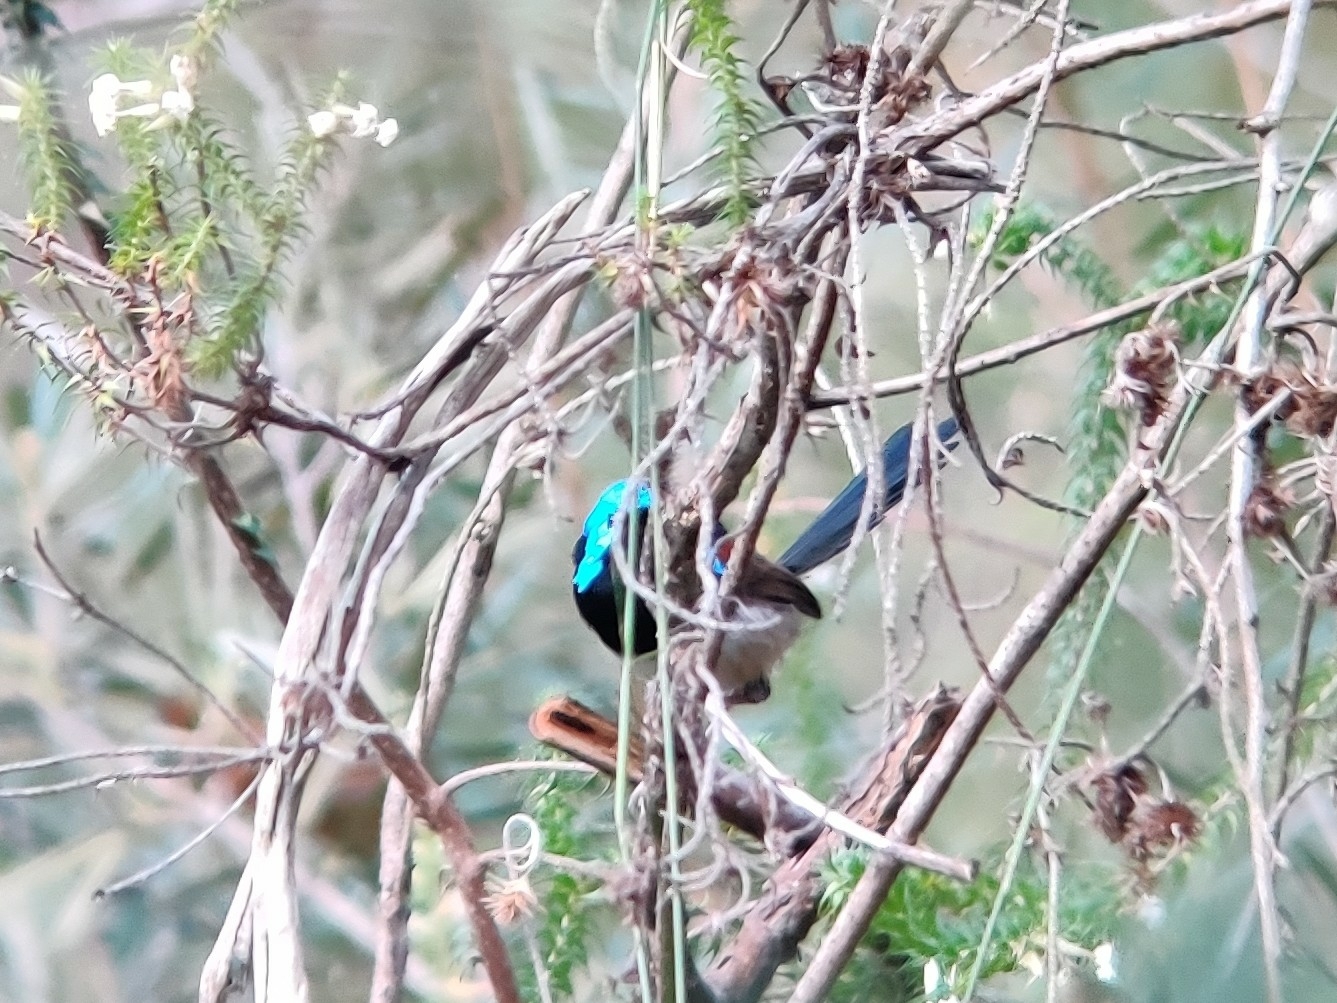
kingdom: Animalia
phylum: Chordata
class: Aves
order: Passeriformes
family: Maluridae
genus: Malurus
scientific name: Malurus lamberti
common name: Variegated fairywren
